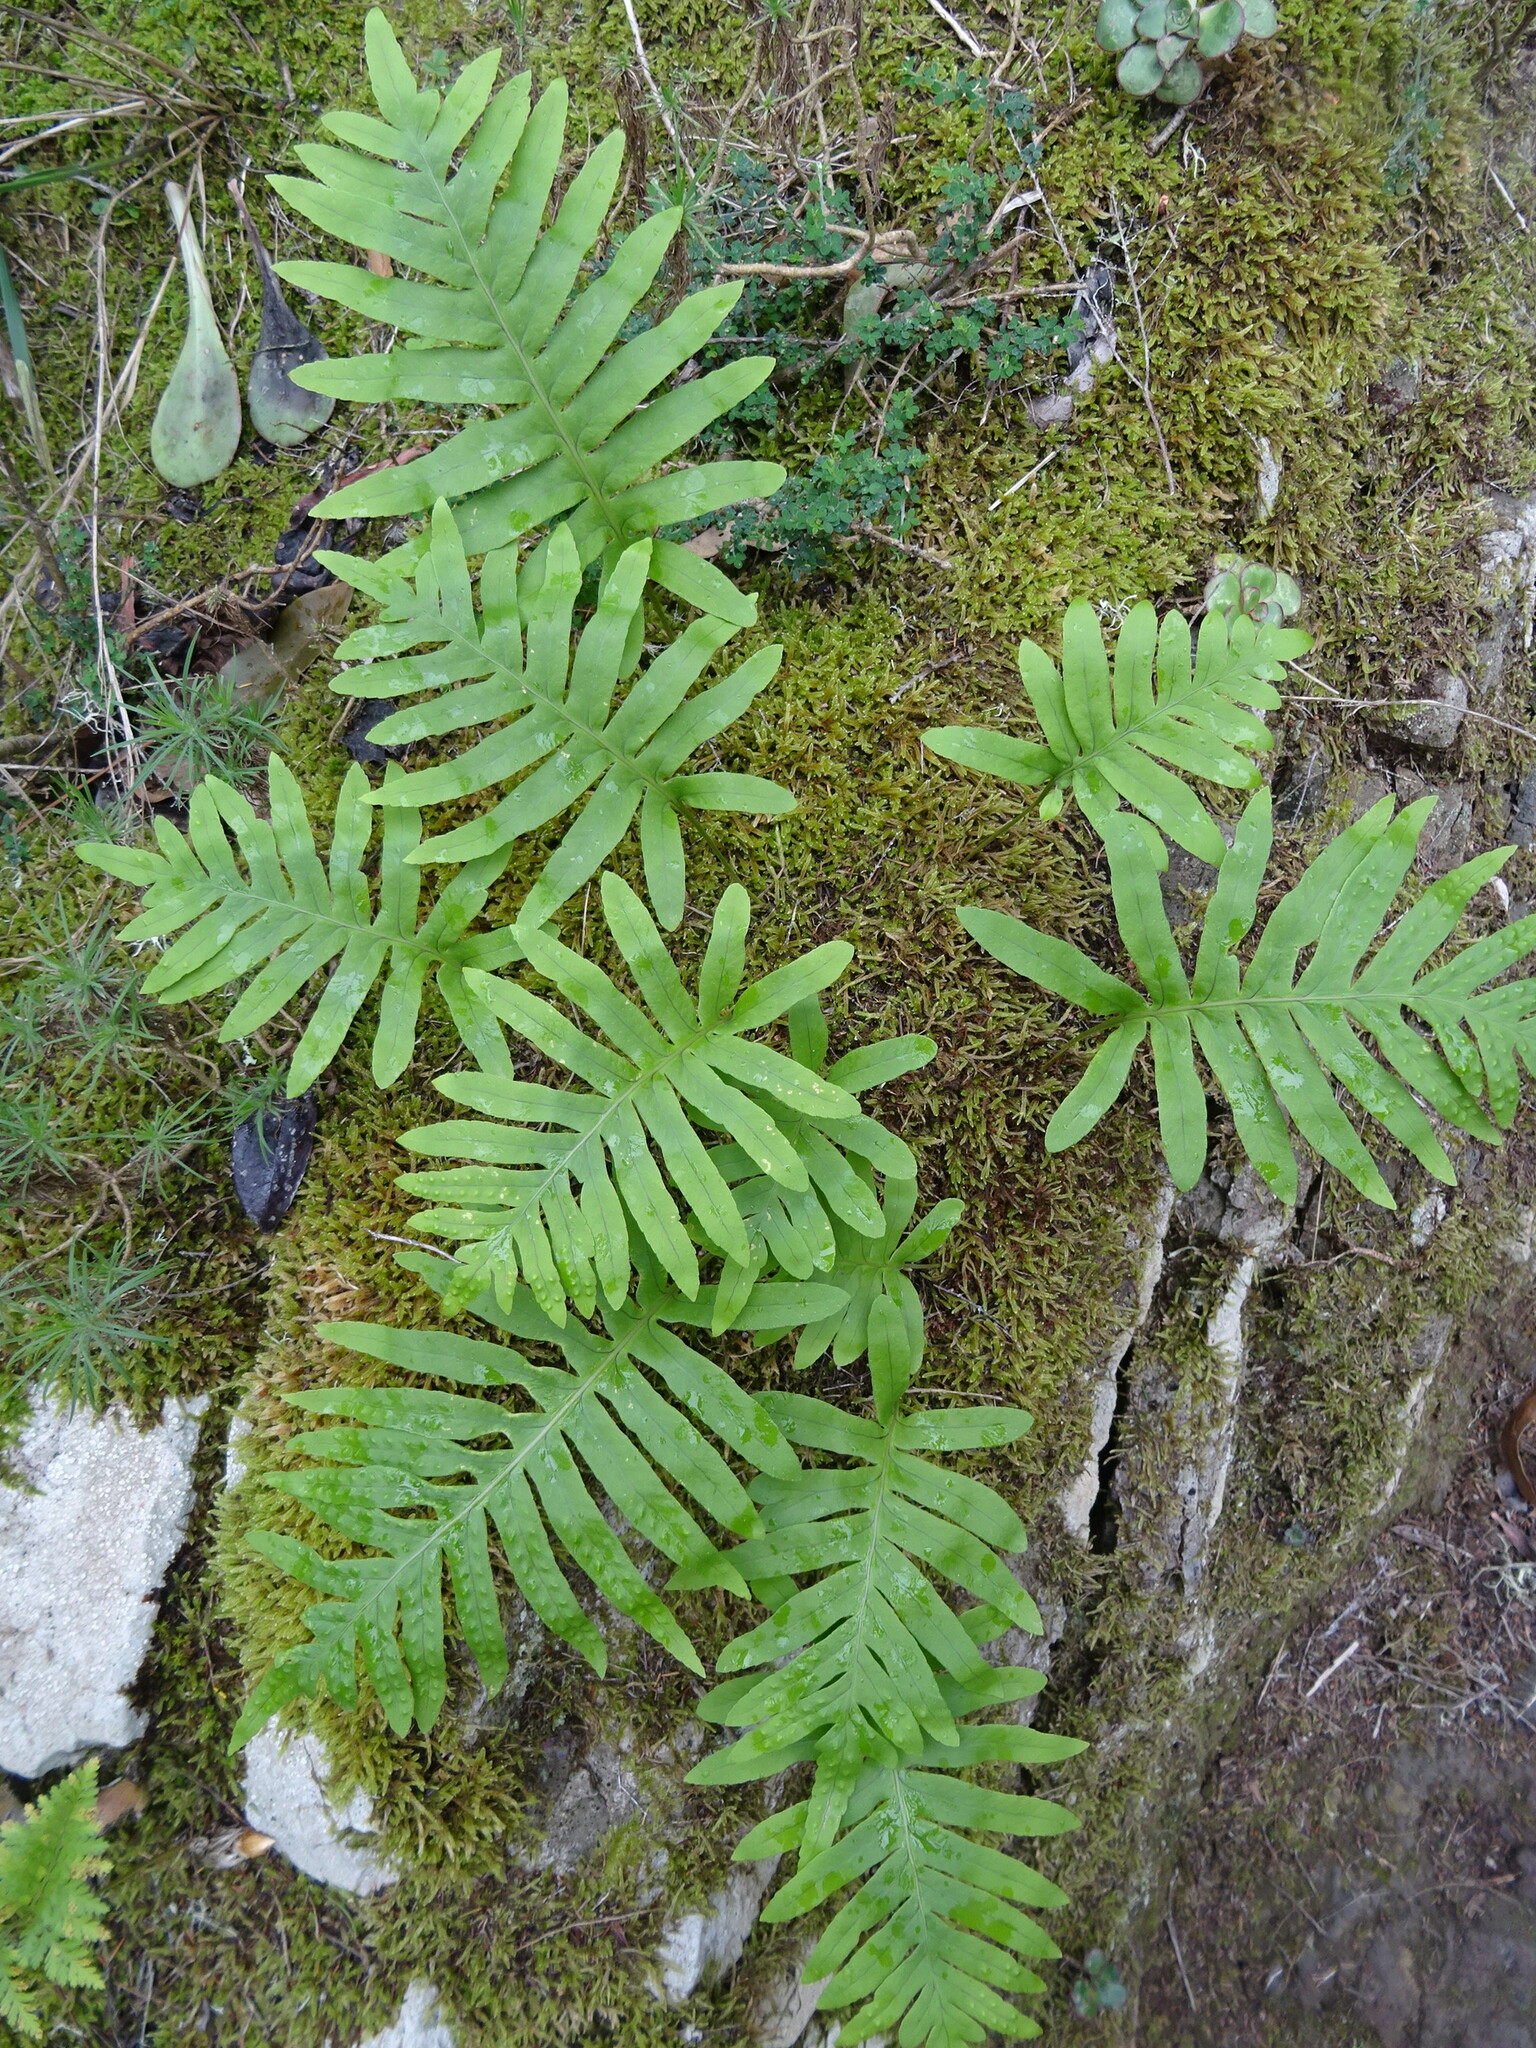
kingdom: Plantae
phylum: Tracheophyta
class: Polypodiopsida
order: Polypodiales
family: Polypodiaceae
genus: Polypodium
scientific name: Polypodium macaronesicum
